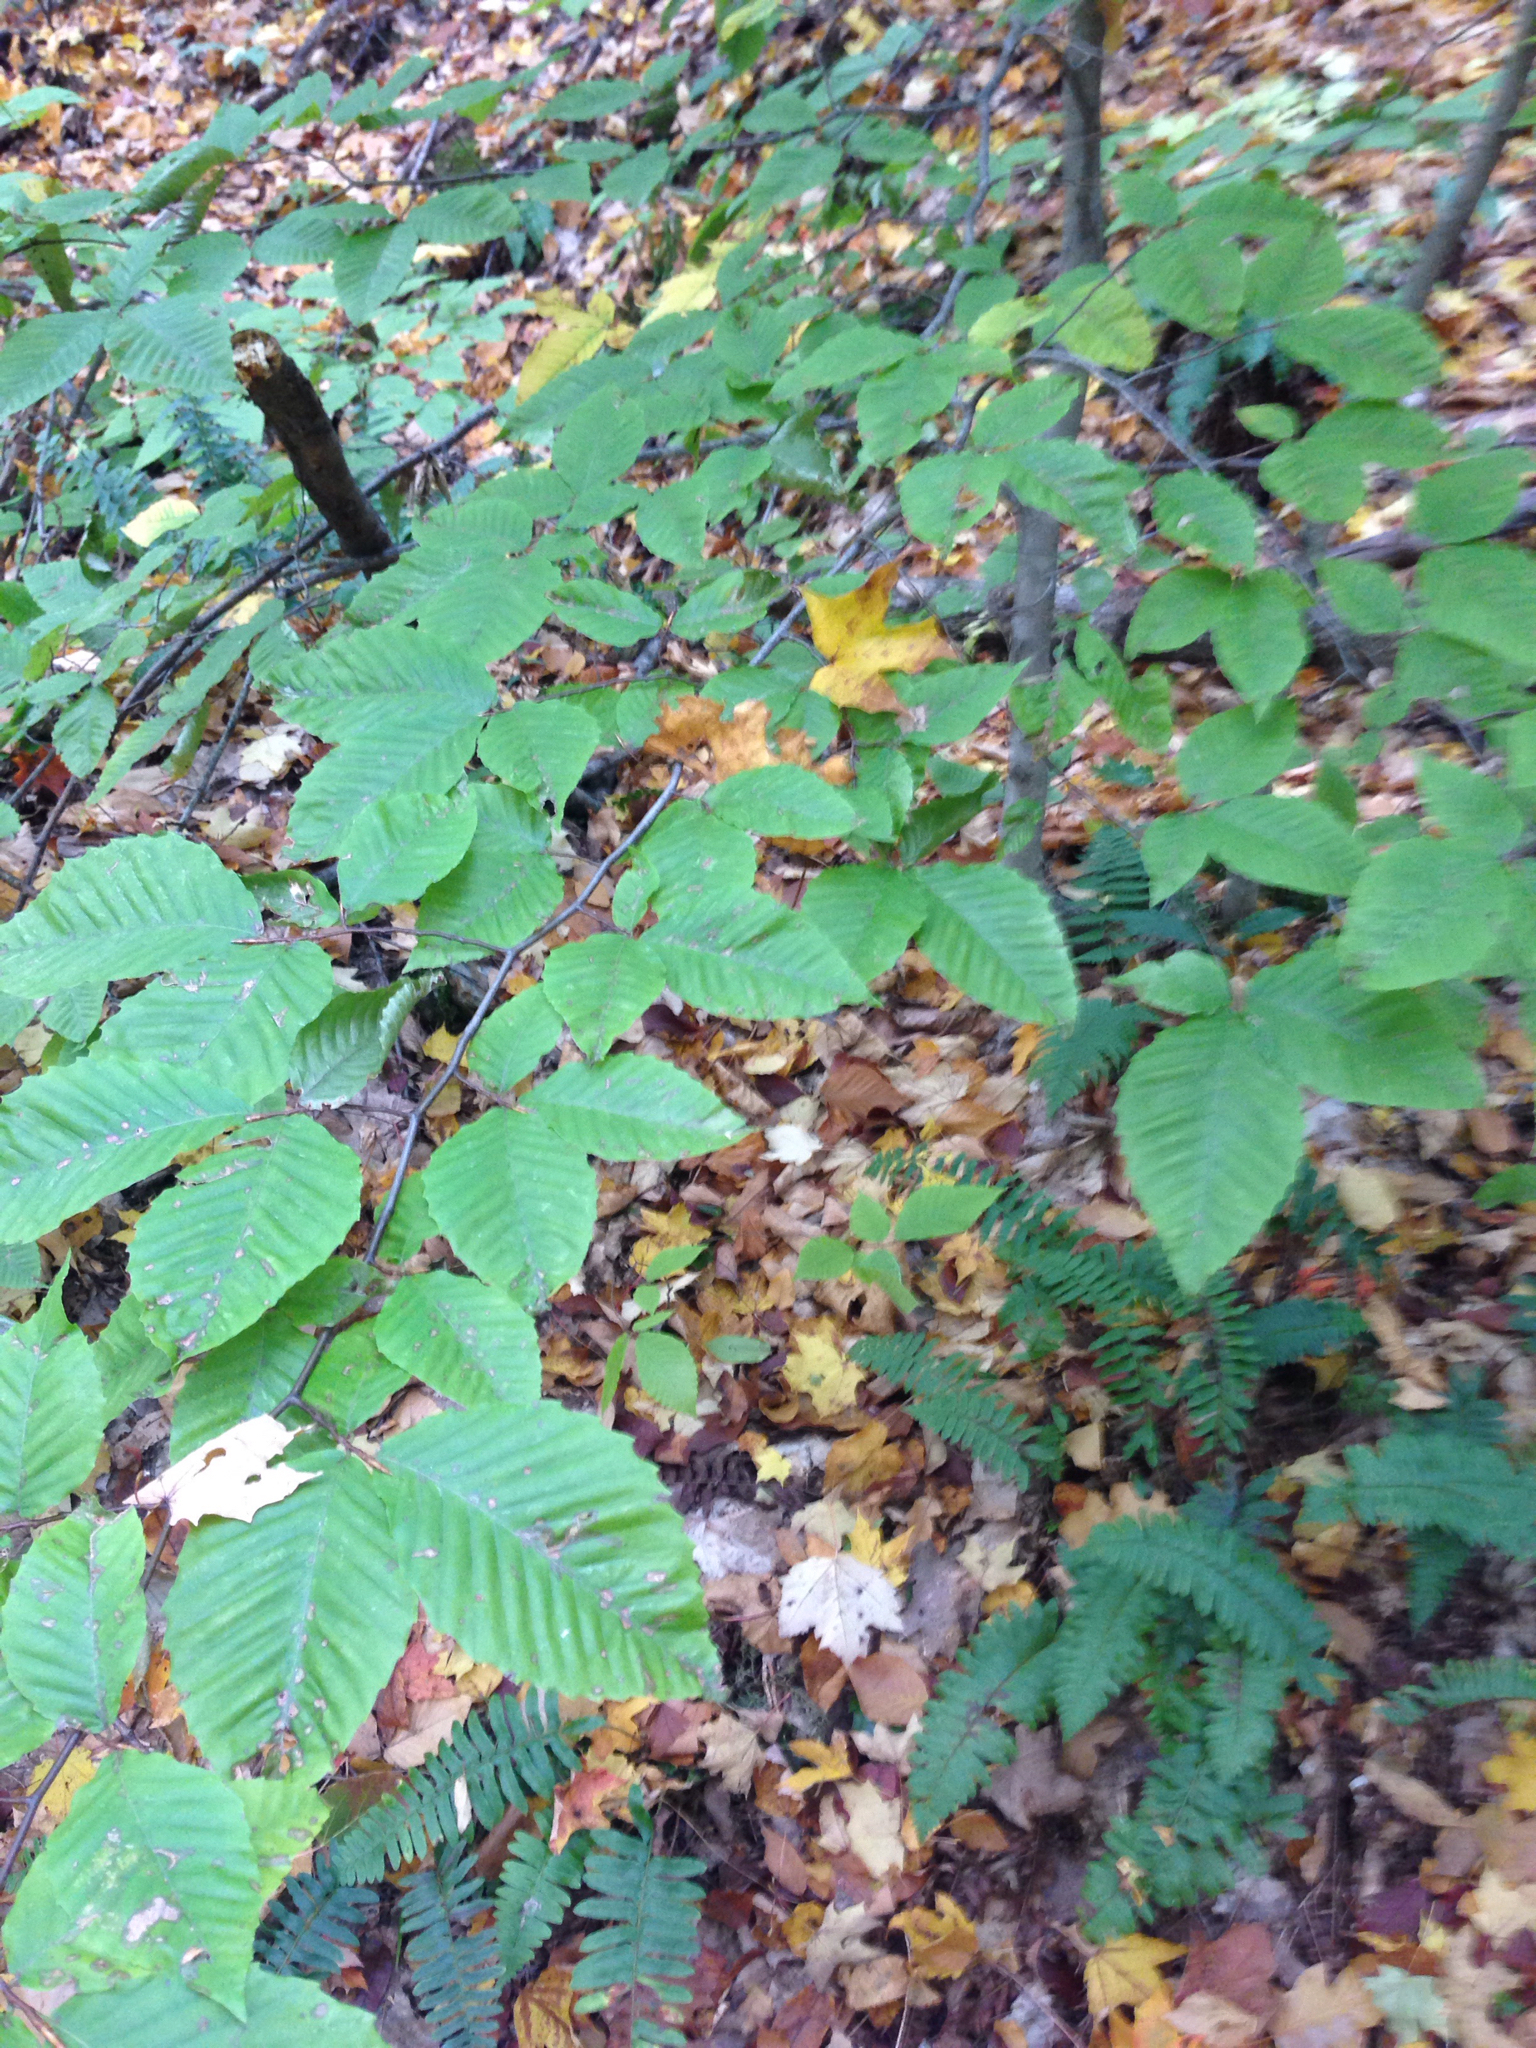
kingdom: Plantae
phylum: Tracheophyta
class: Magnoliopsida
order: Fagales
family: Fagaceae
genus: Fagus
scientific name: Fagus grandifolia
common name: American beech
